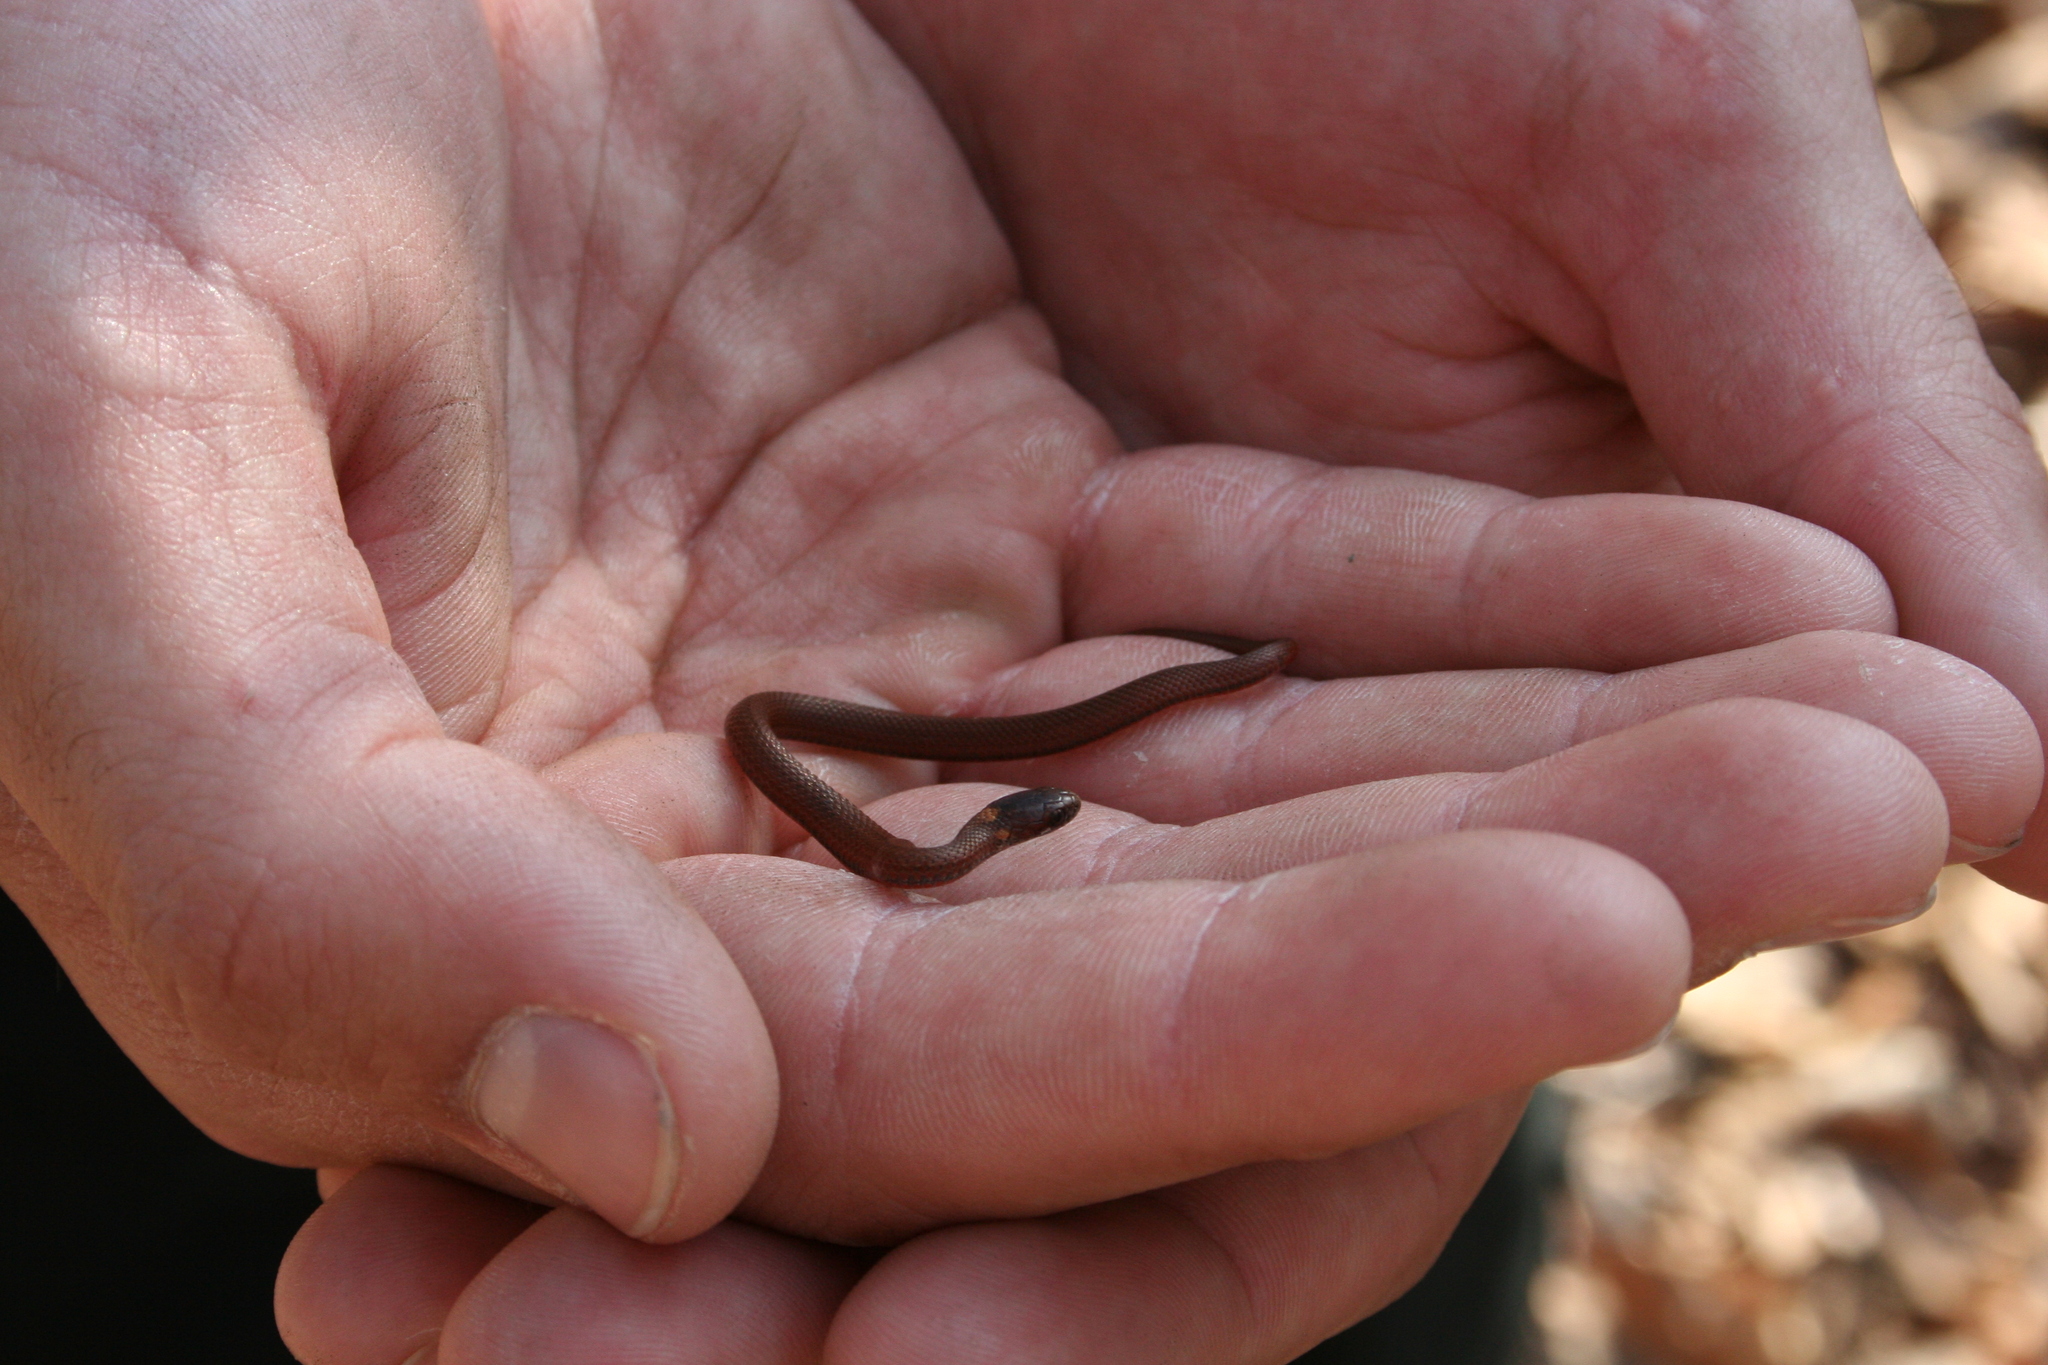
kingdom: Animalia
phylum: Chordata
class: Squamata
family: Colubridae
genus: Storeria
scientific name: Storeria occipitomaculata
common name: Redbelly snake
